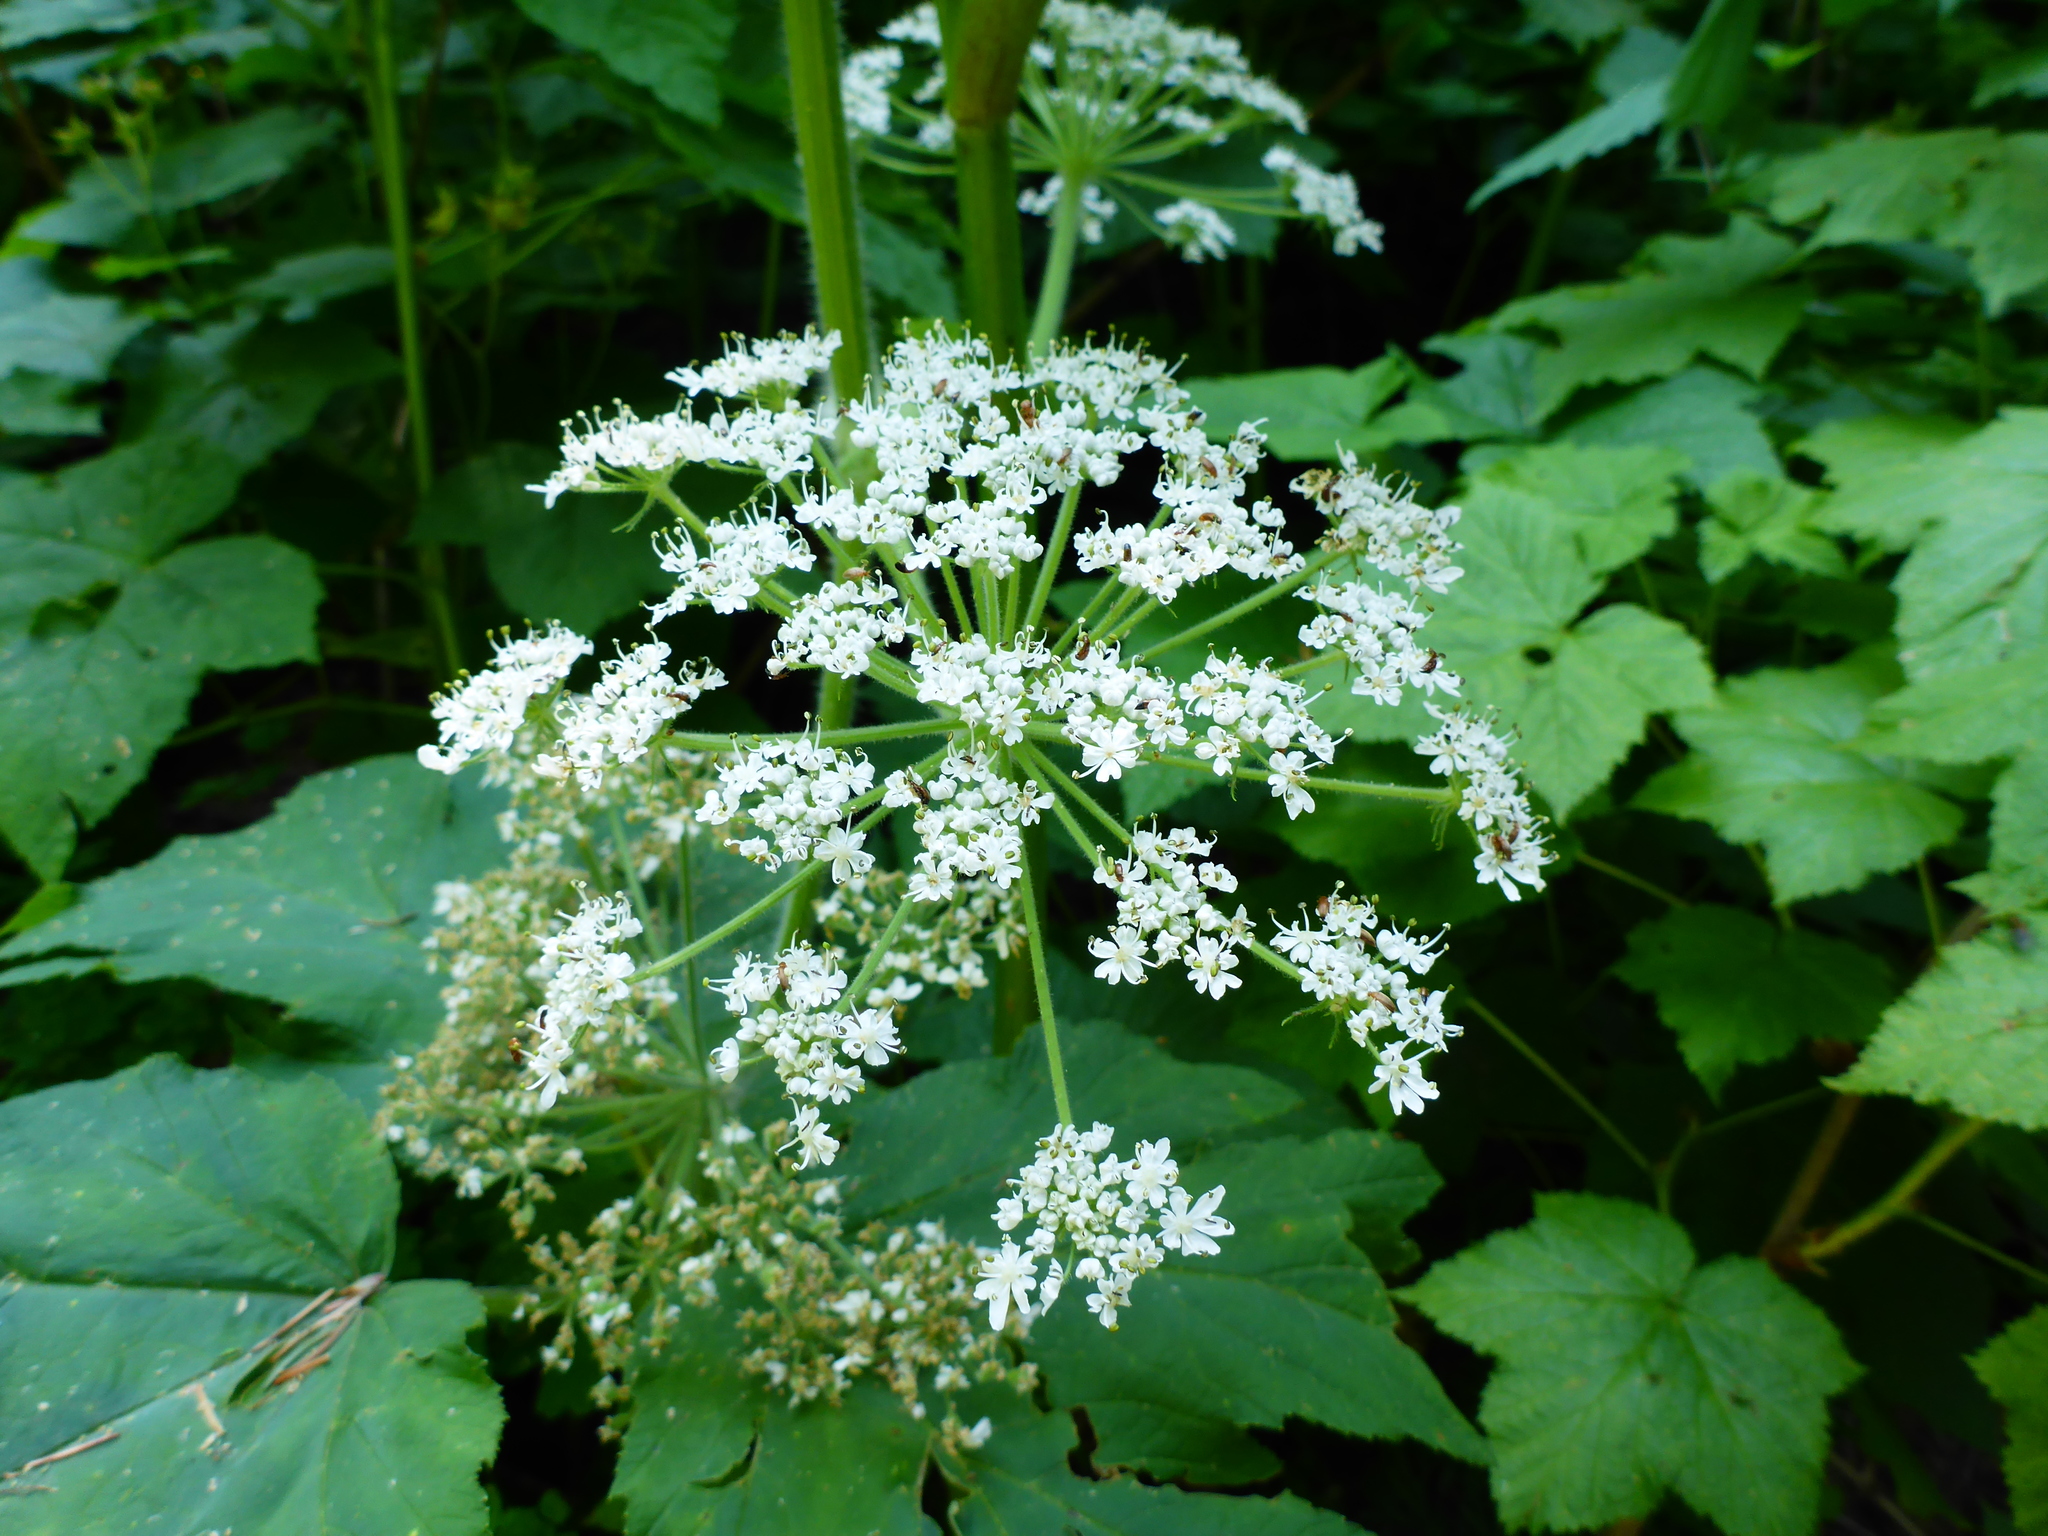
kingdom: Plantae
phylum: Tracheophyta
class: Magnoliopsida
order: Apiales
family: Apiaceae
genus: Heracleum
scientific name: Heracleum maximum
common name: American cow parsnip
